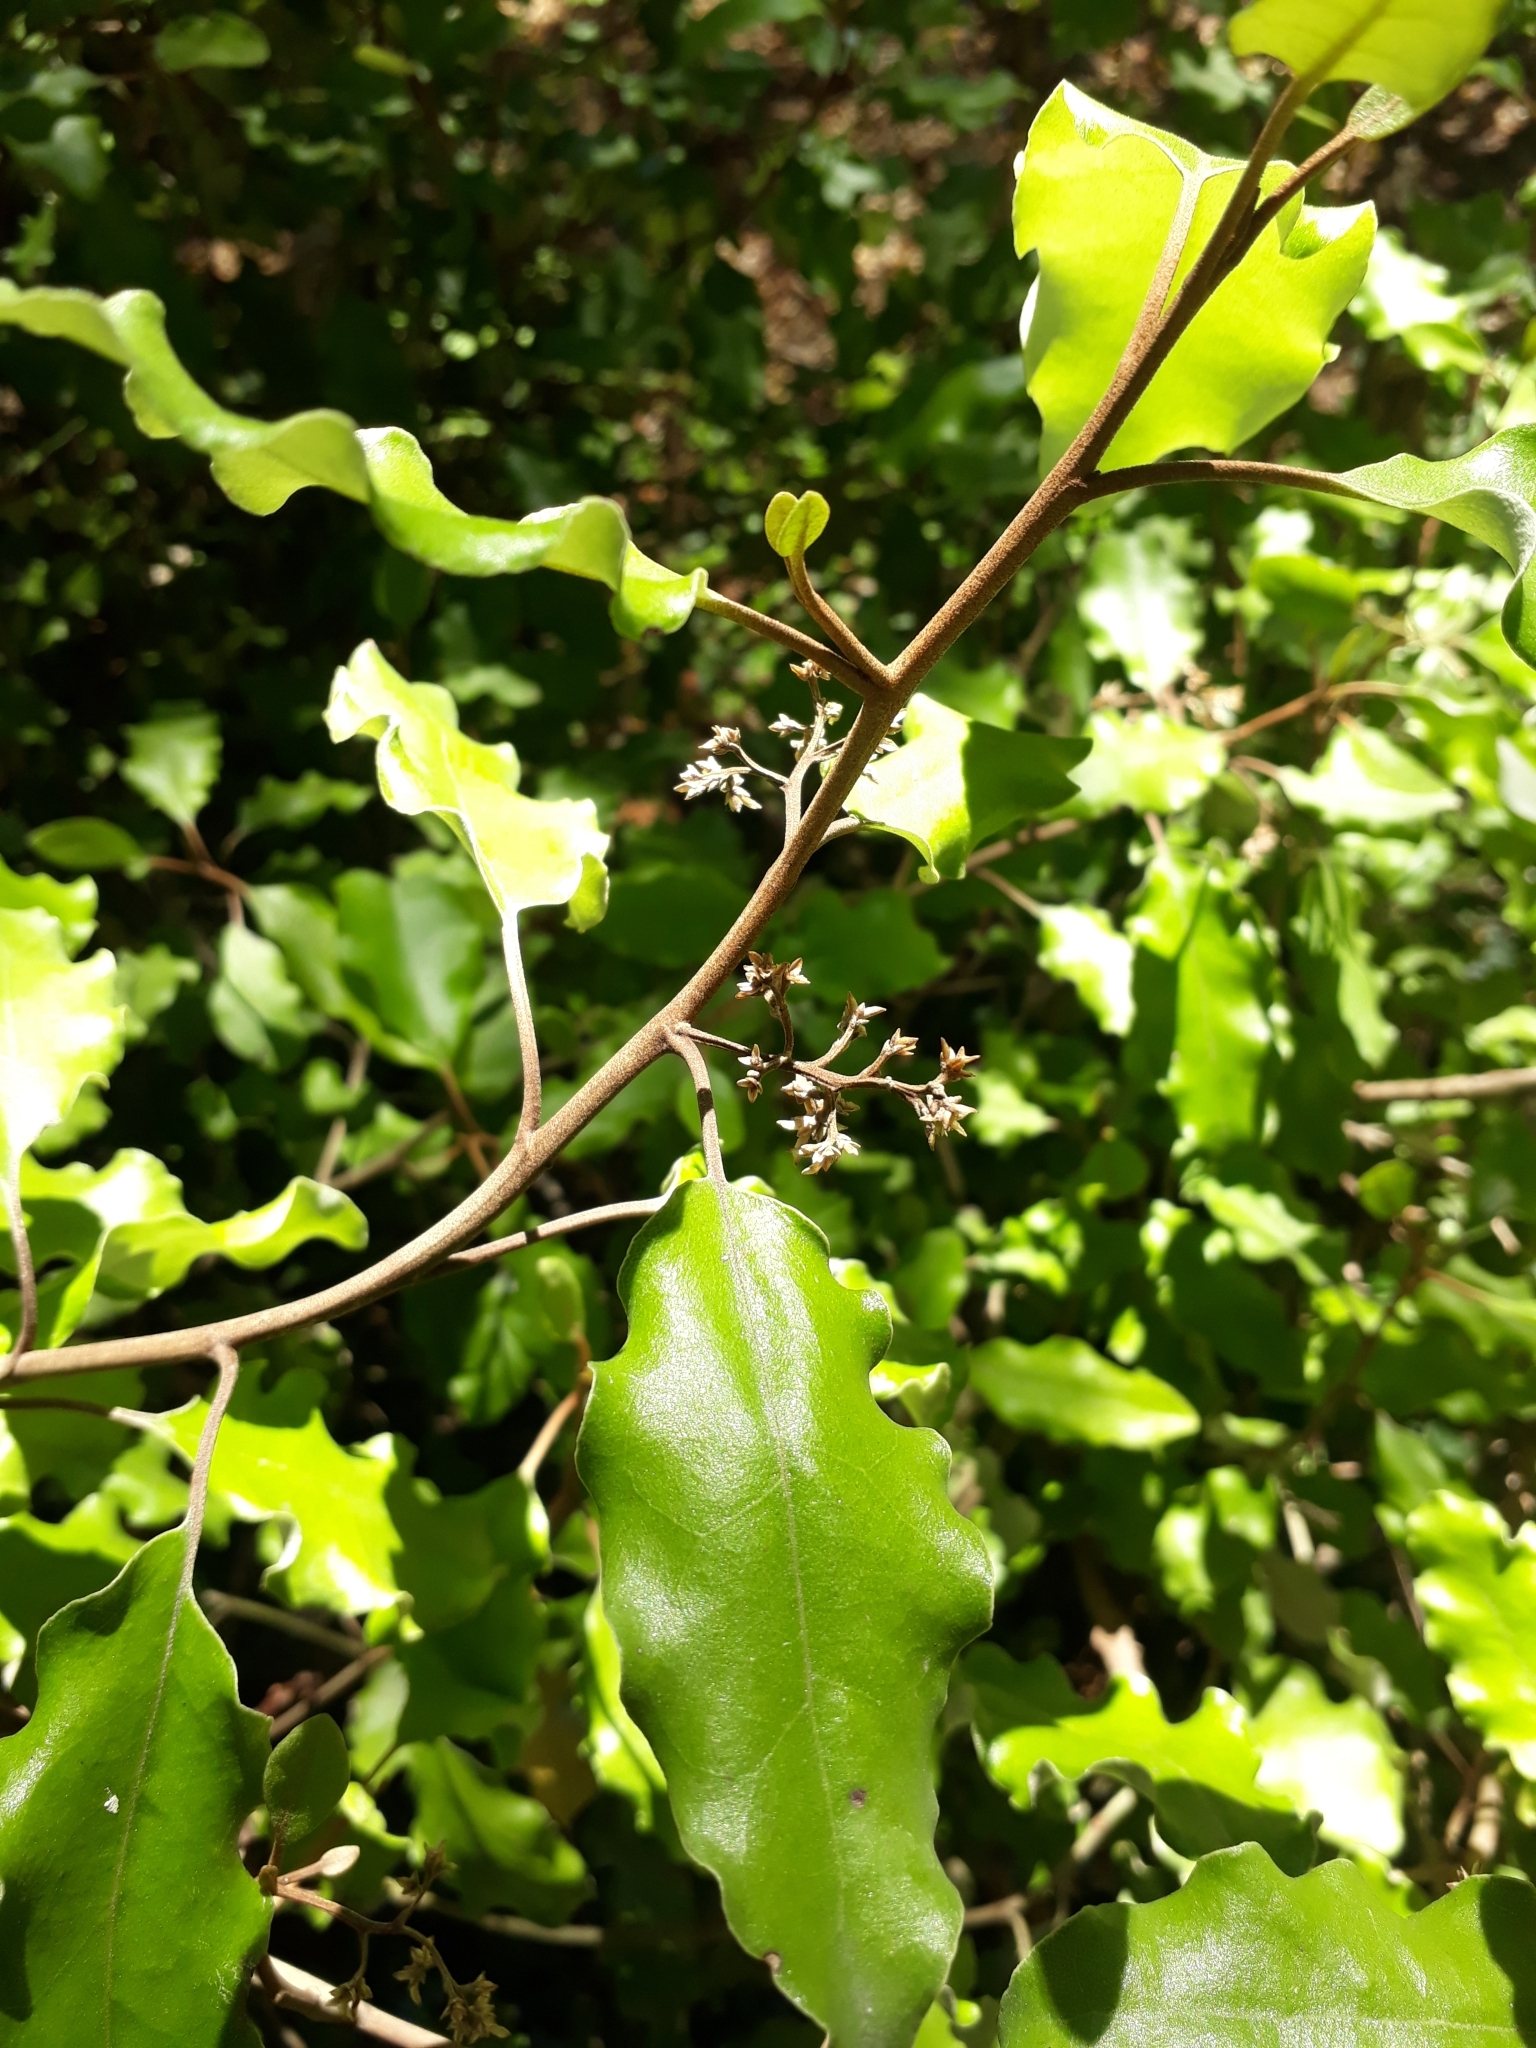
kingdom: Plantae
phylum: Tracheophyta
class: Magnoliopsida
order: Asterales
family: Asteraceae
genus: Olearia
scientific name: Olearia paniculata
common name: Akiraho
